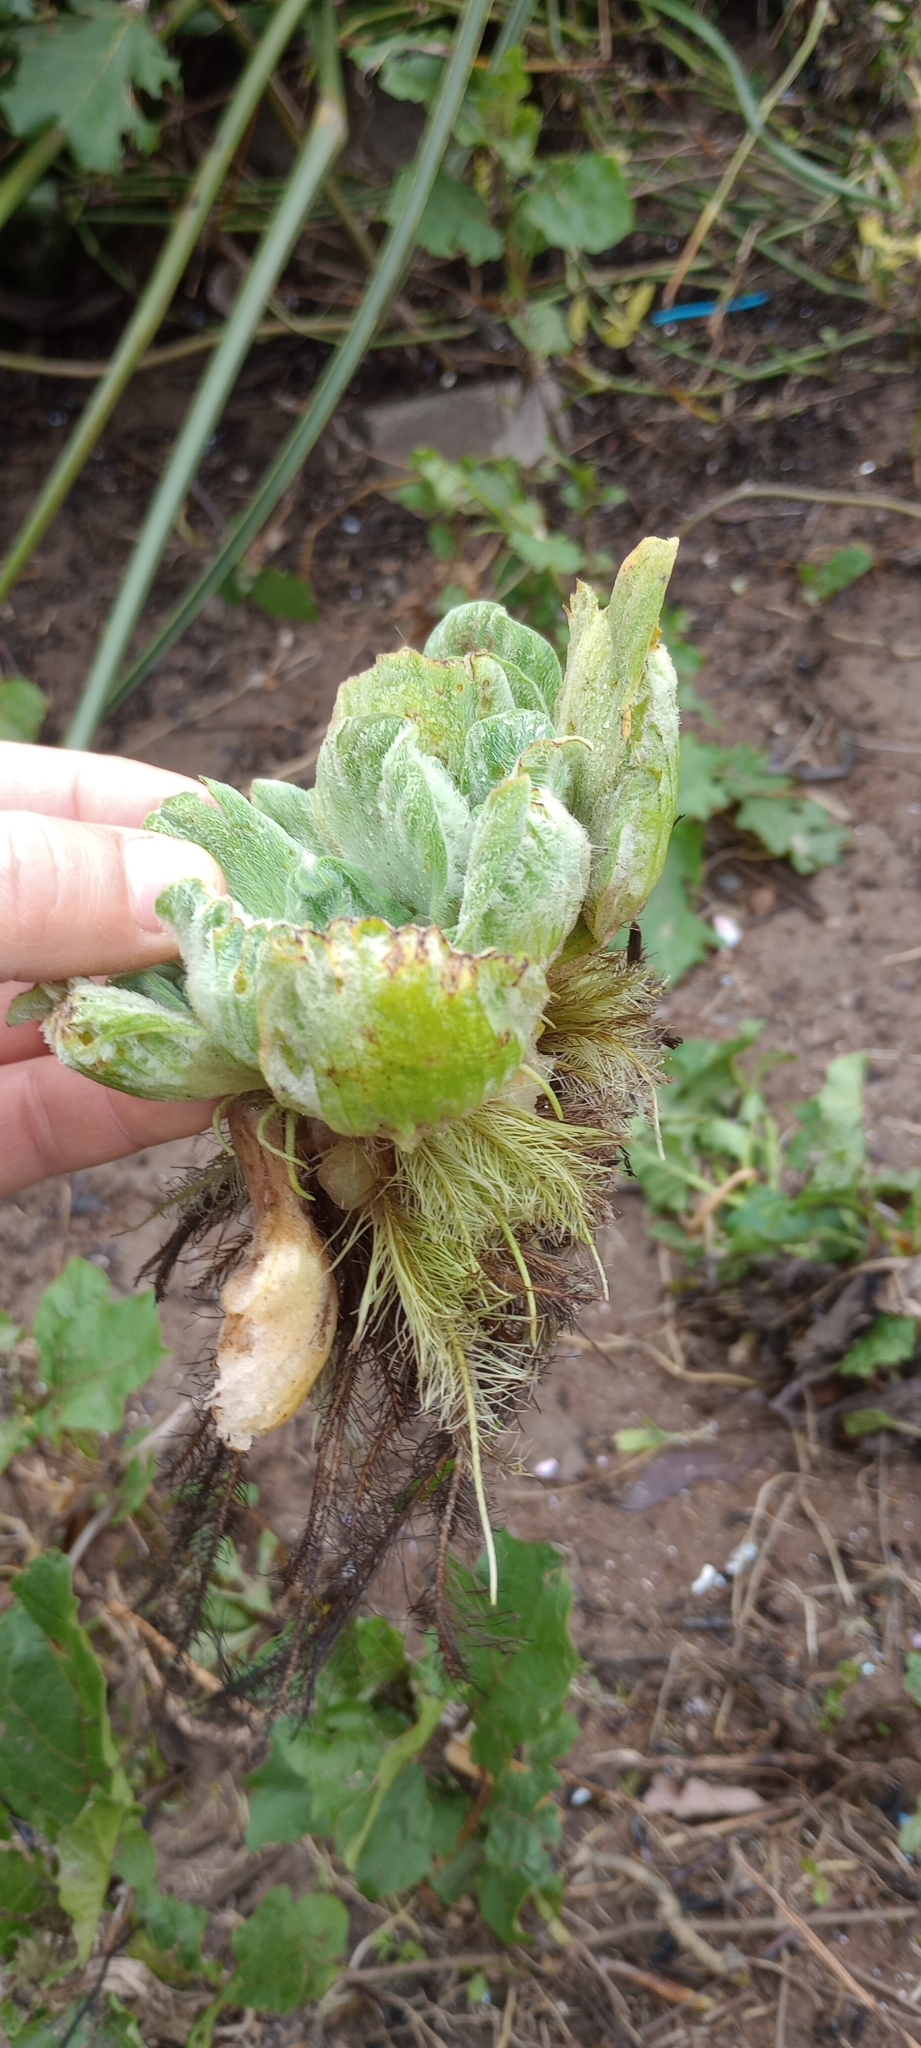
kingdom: Plantae
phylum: Tracheophyta
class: Liliopsida
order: Alismatales
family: Araceae
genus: Pistia
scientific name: Pistia stratiotes
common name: Water lettuce
